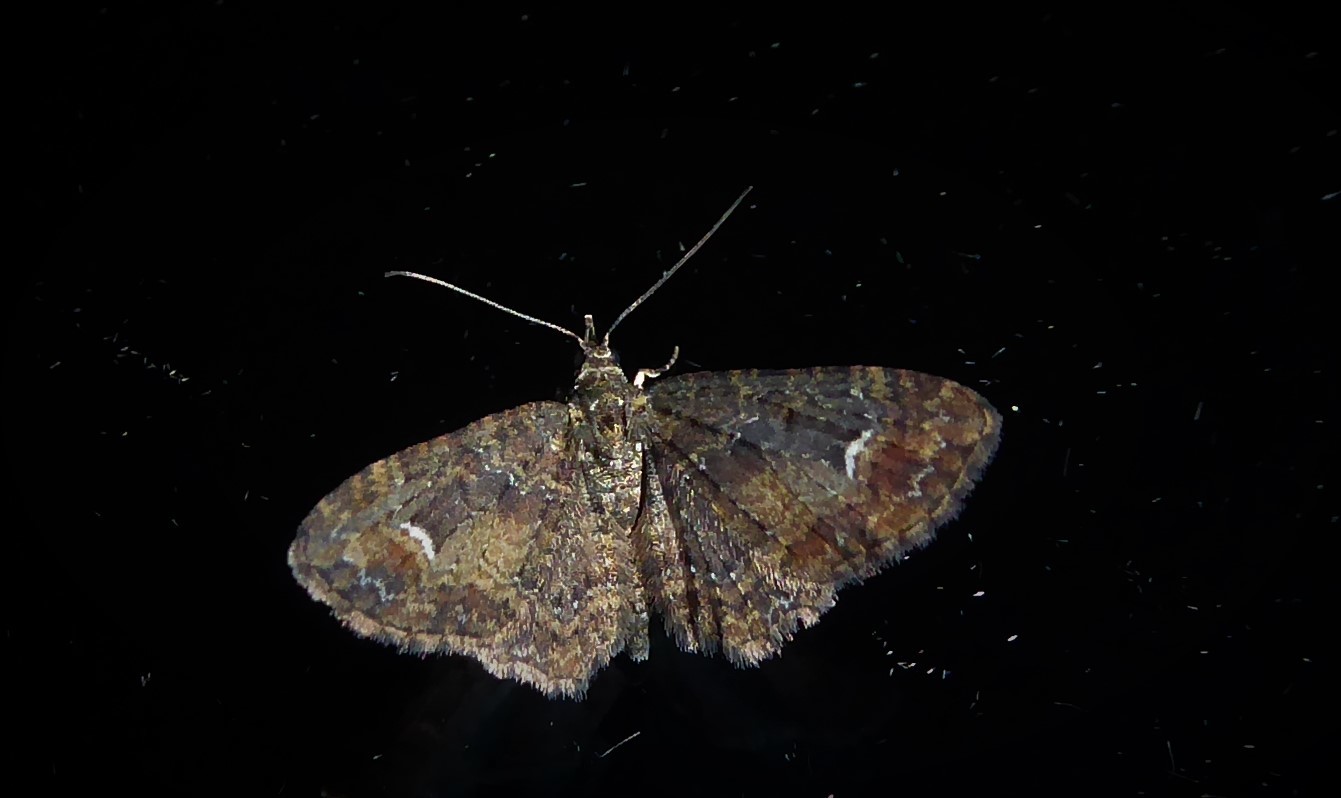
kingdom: Animalia
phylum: Arthropoda
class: Insecta
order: Lepidoptera
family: Geometridae
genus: Pasiphilodes
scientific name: Pasiphilodes testulata
